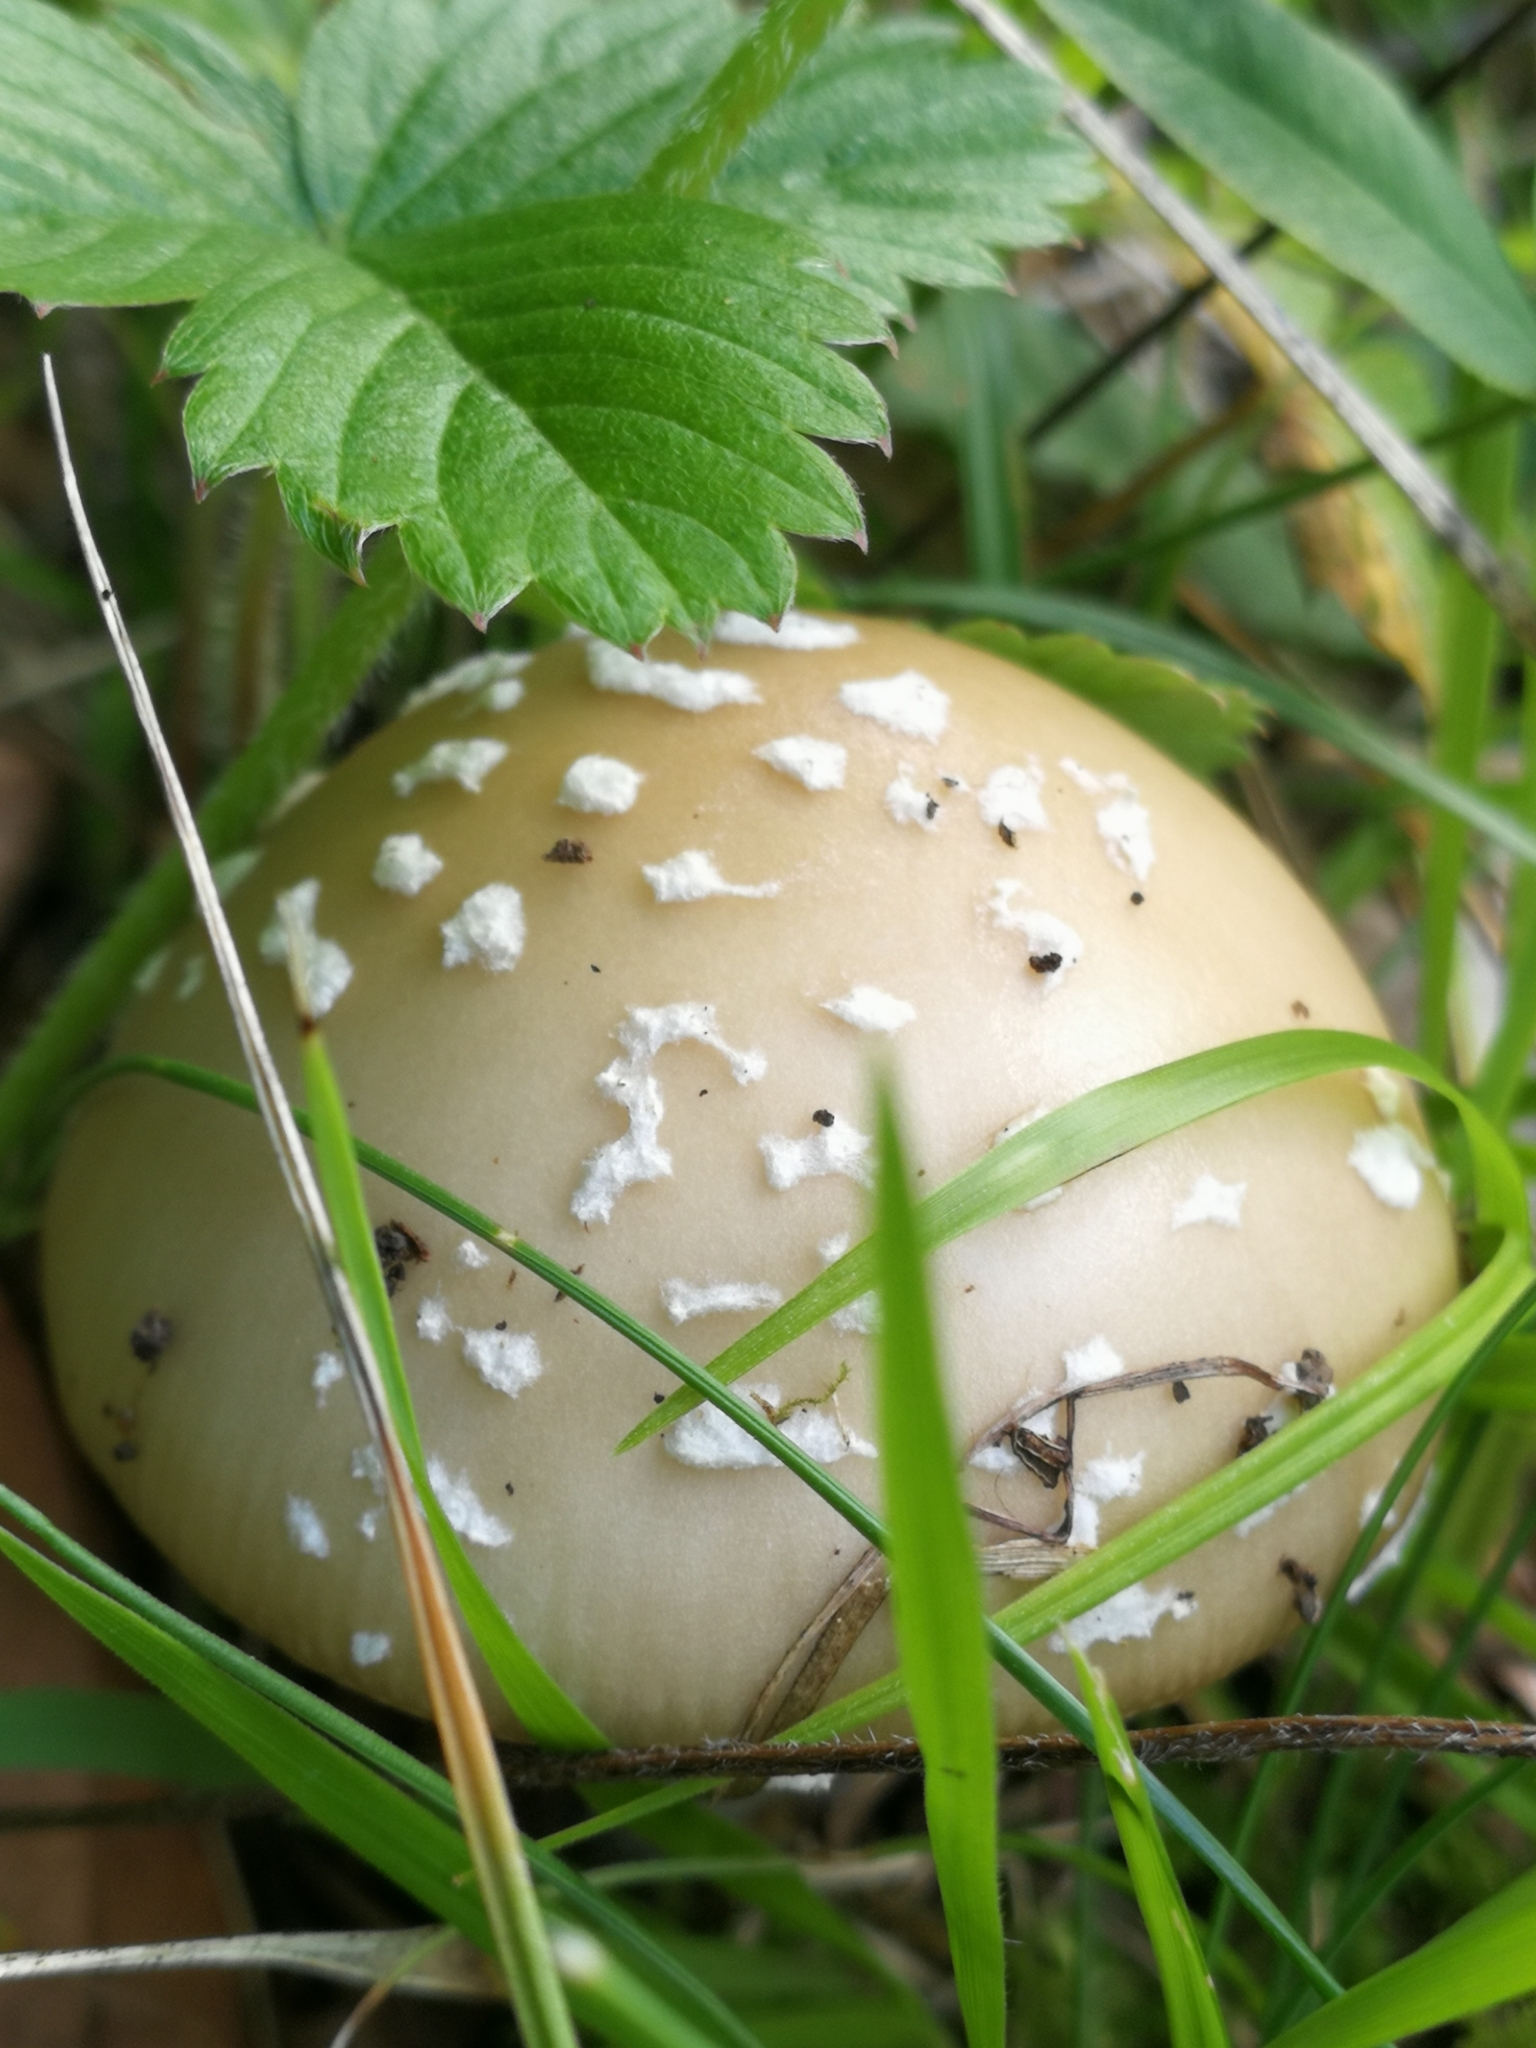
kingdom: Fungi
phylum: Basidiomycota
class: Agaricomycetes
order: Agaricales
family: Amanitaceae
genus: Amanita
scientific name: Amanita pantherina
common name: Panthercap
